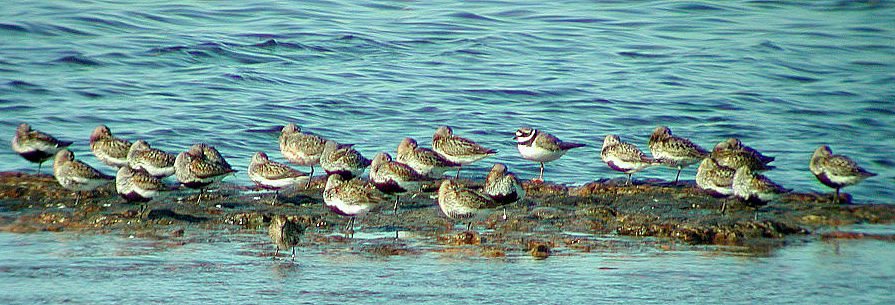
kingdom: Animalia
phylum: Chordata
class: Aves
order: Charadriiformes
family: Scolopacidae
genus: Calidris
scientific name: Calidris alpina
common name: Dunlin
